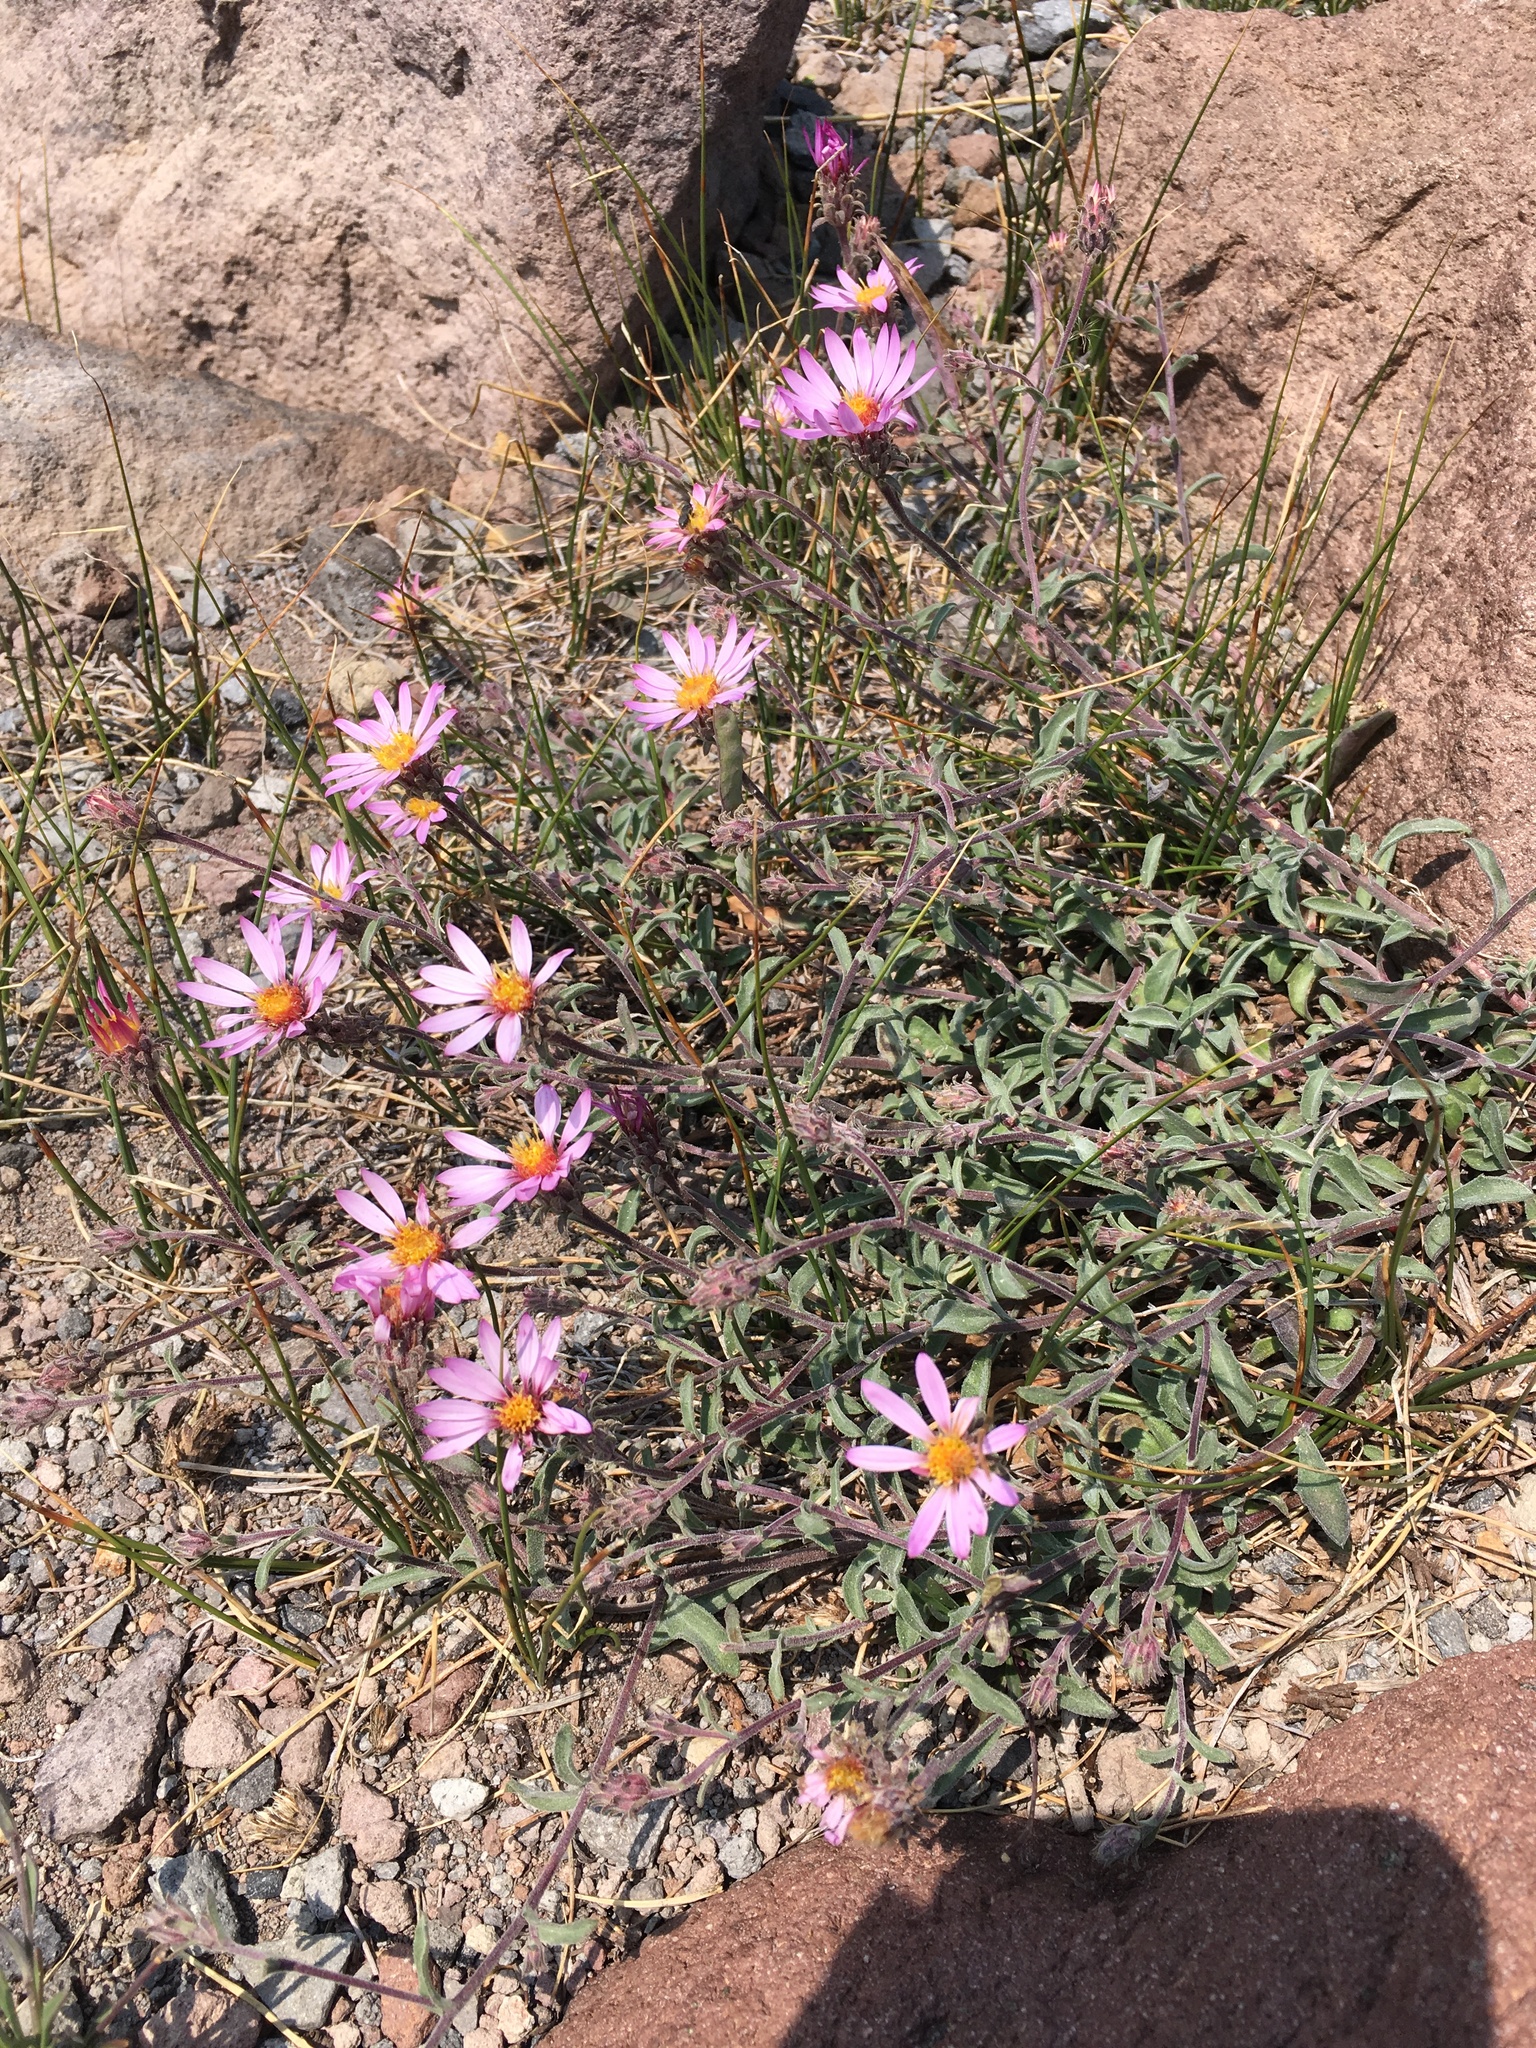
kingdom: Plantae
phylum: Tracheophyta
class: Magnoliopsida
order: Asterales
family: Asteraceae
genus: Dieteria
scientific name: Dieteria canescens
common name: Hoary-aster
